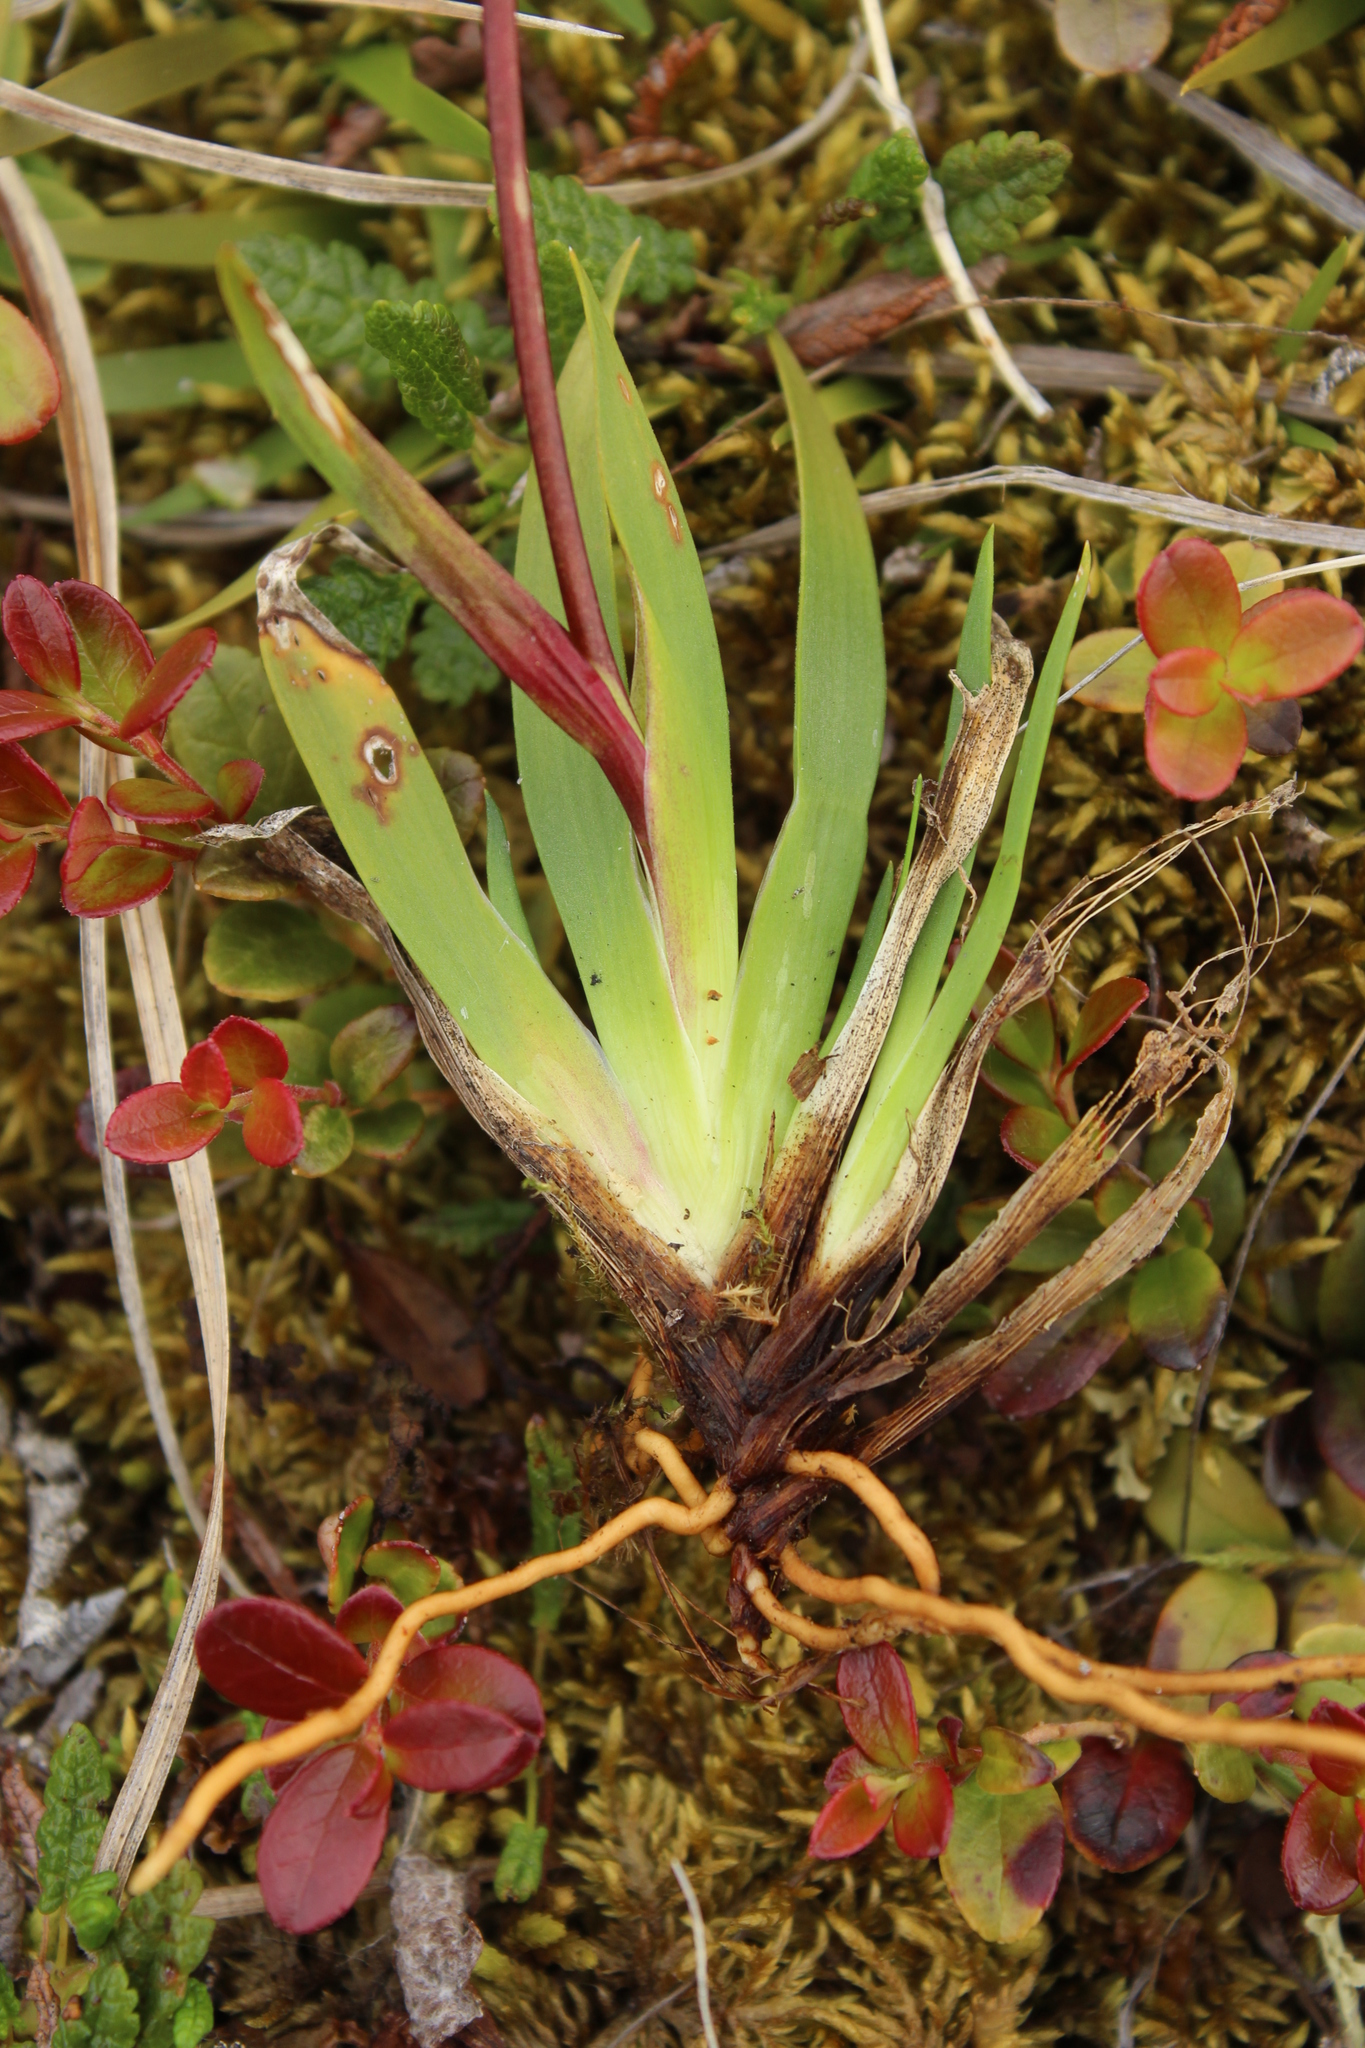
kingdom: Plantae
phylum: Tracheophyta
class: Liliopsida
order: Alismatales
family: Tofieldiaceae
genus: Tofieldia
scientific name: Tofieldia coccinea
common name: Northern false asphodel
